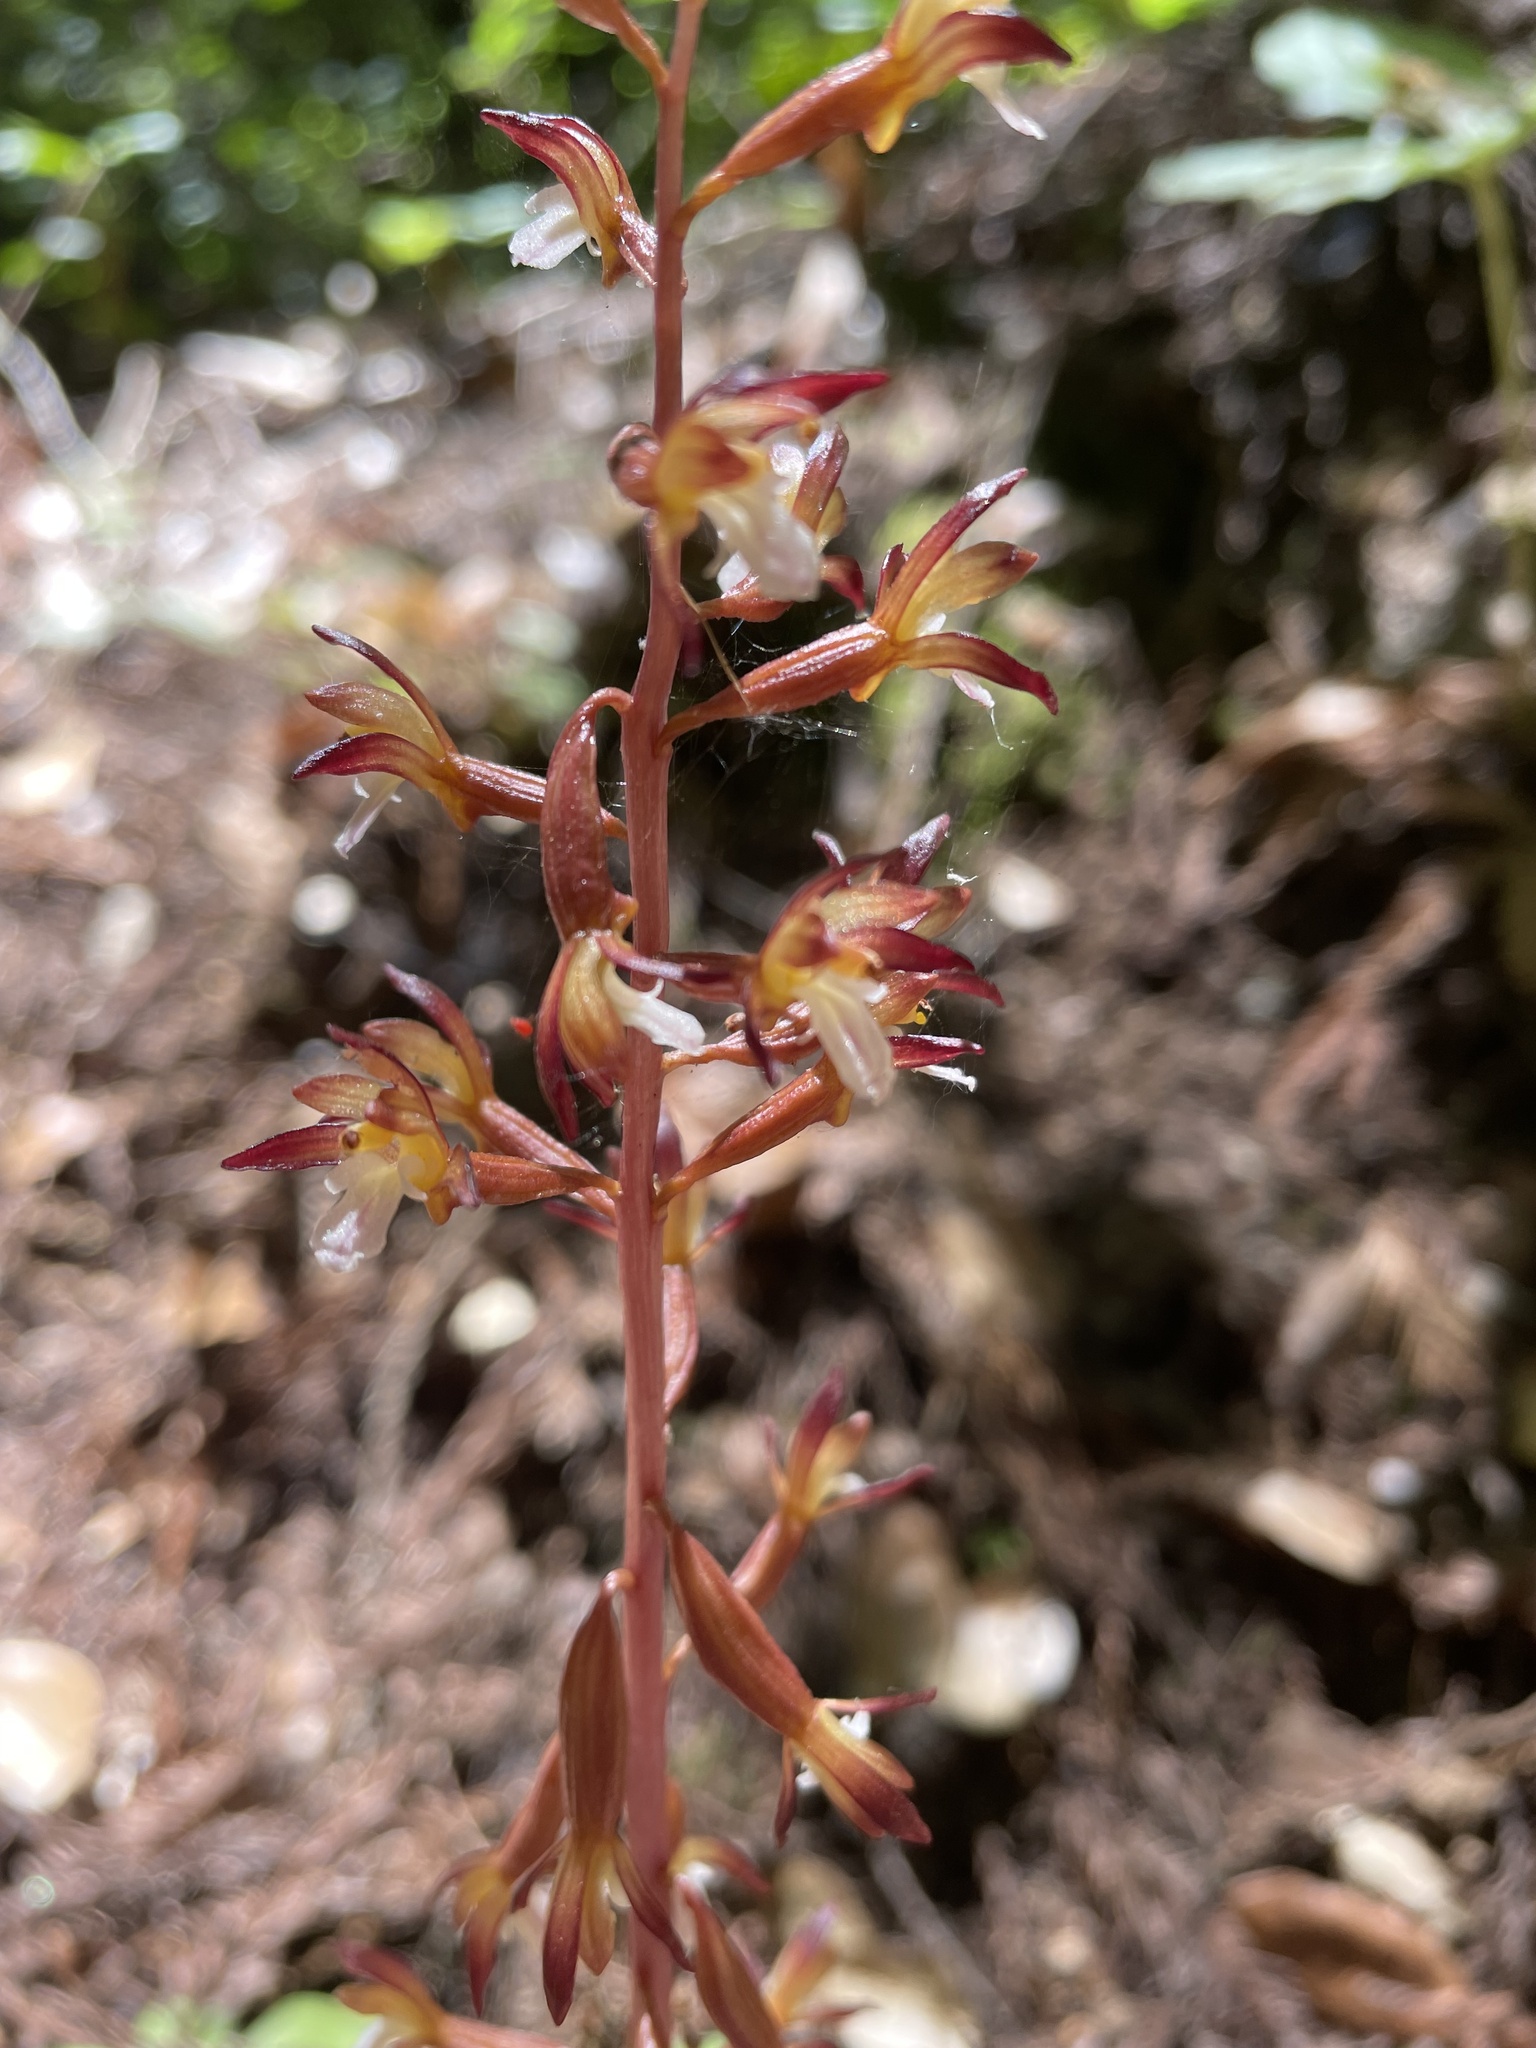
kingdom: Plantae
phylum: Tracheophyta
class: Liliopsida
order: Asparagales
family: Orchidaceae
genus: Corallorhiza
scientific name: Corallorhiza maculata
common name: Spotted coralroot
